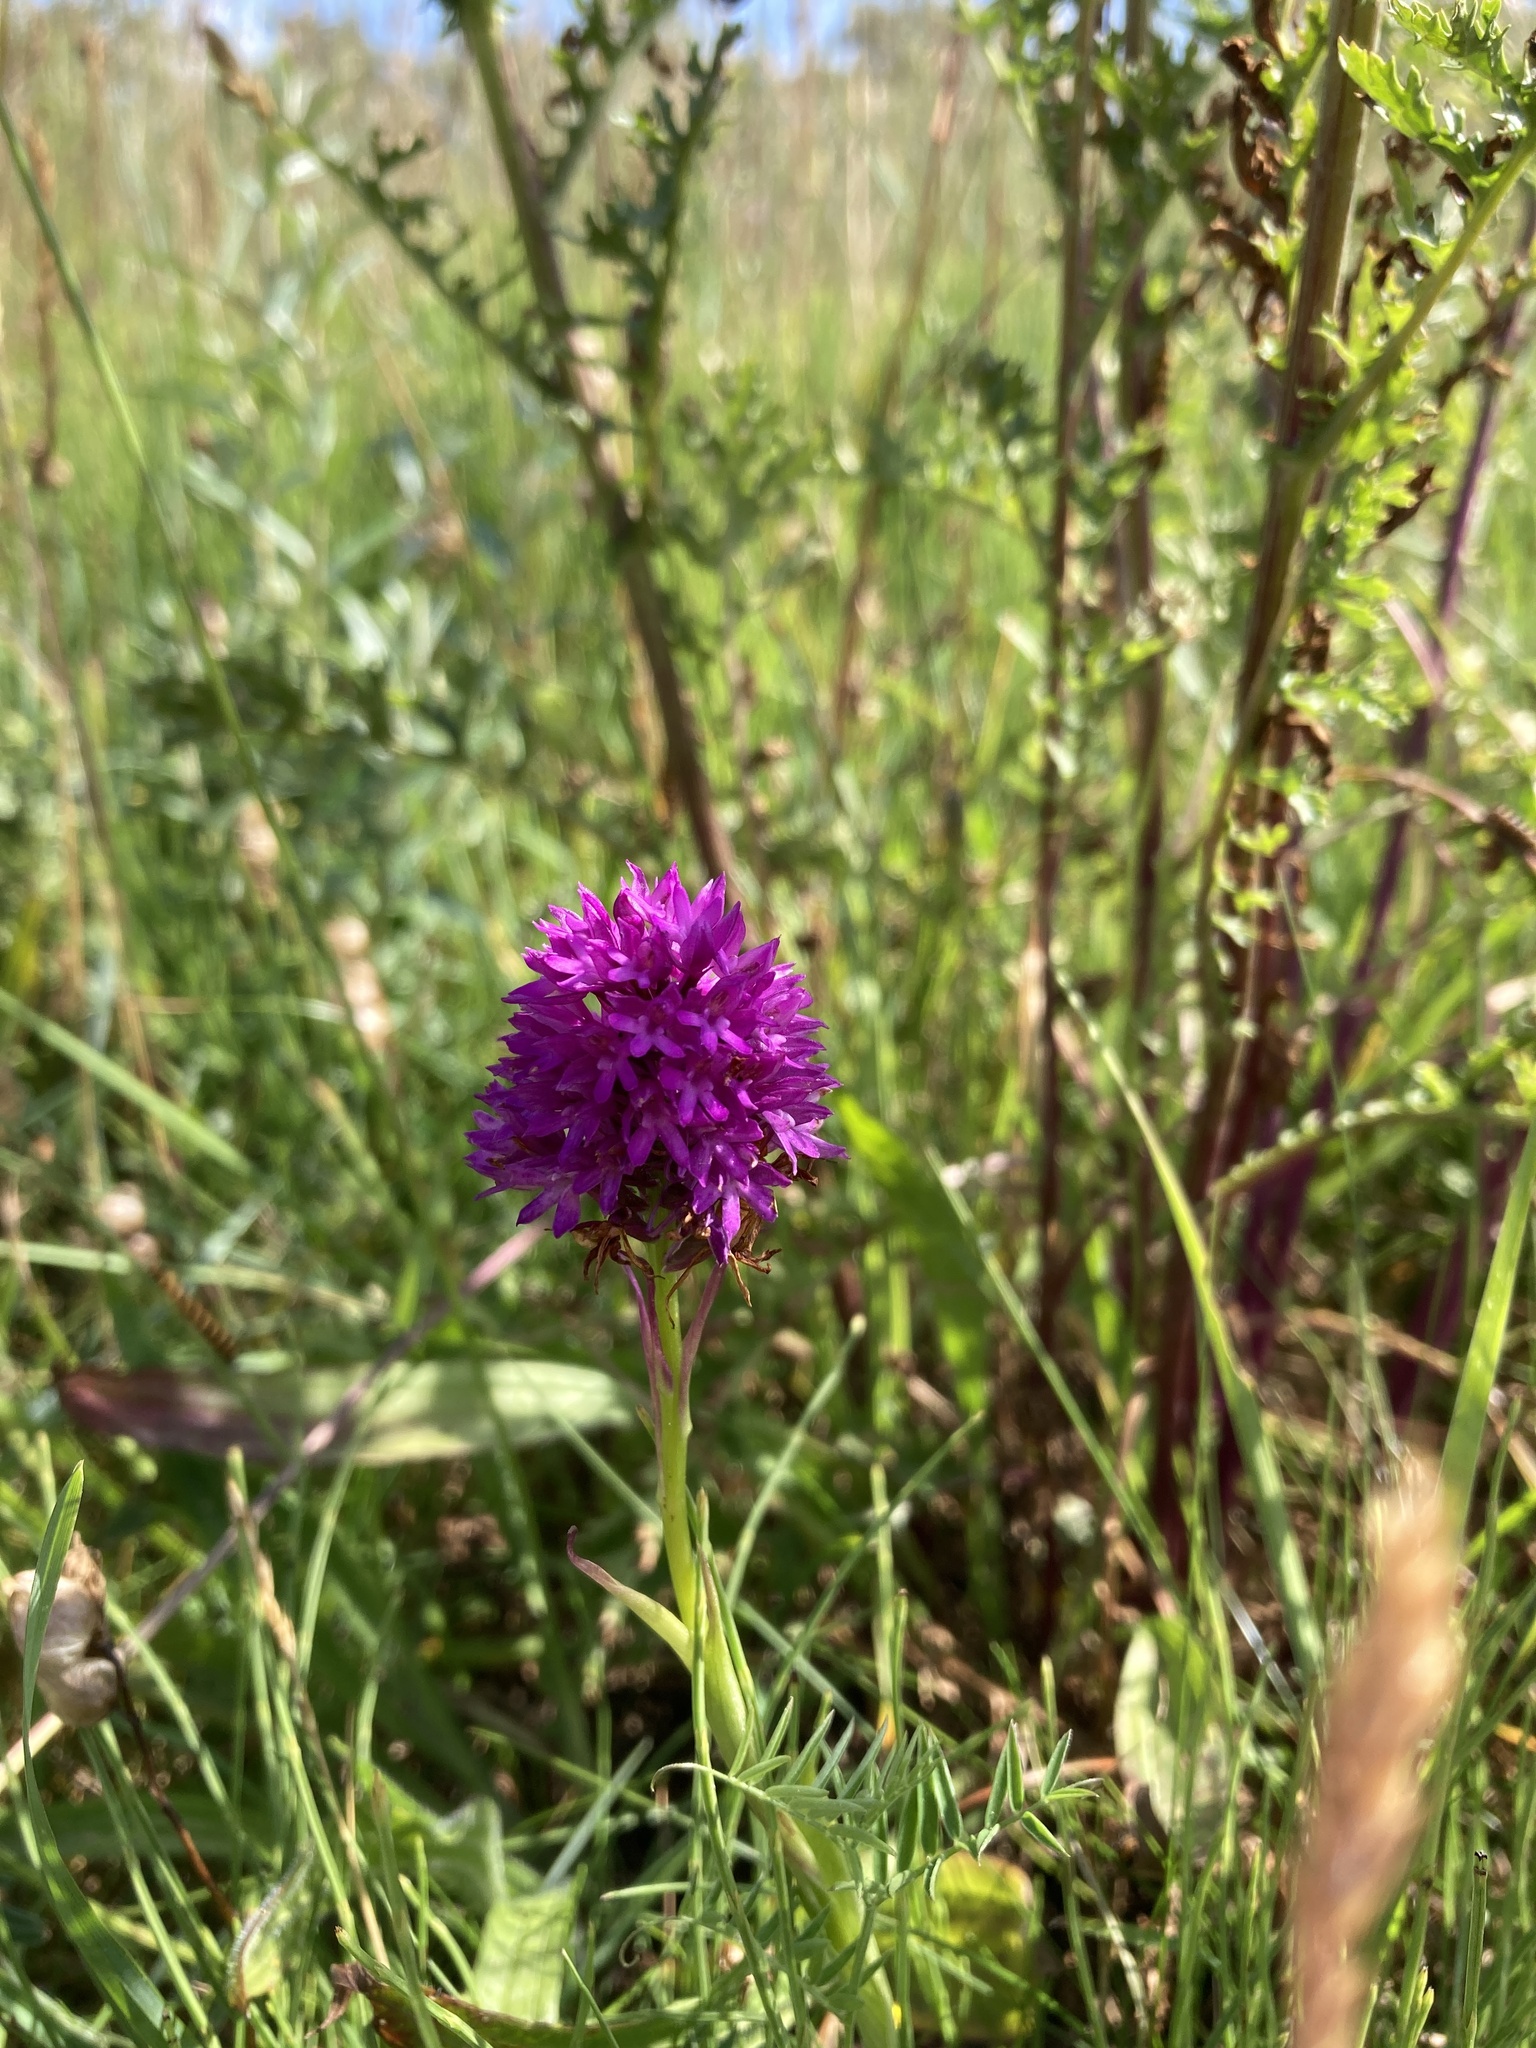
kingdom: Plantae
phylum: Tracheophyta
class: Liliopsida
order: Asparagales
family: Orchidaceae
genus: Anacamptis
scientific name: Anacamptis pyramidalis
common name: Pyramidal orchid
